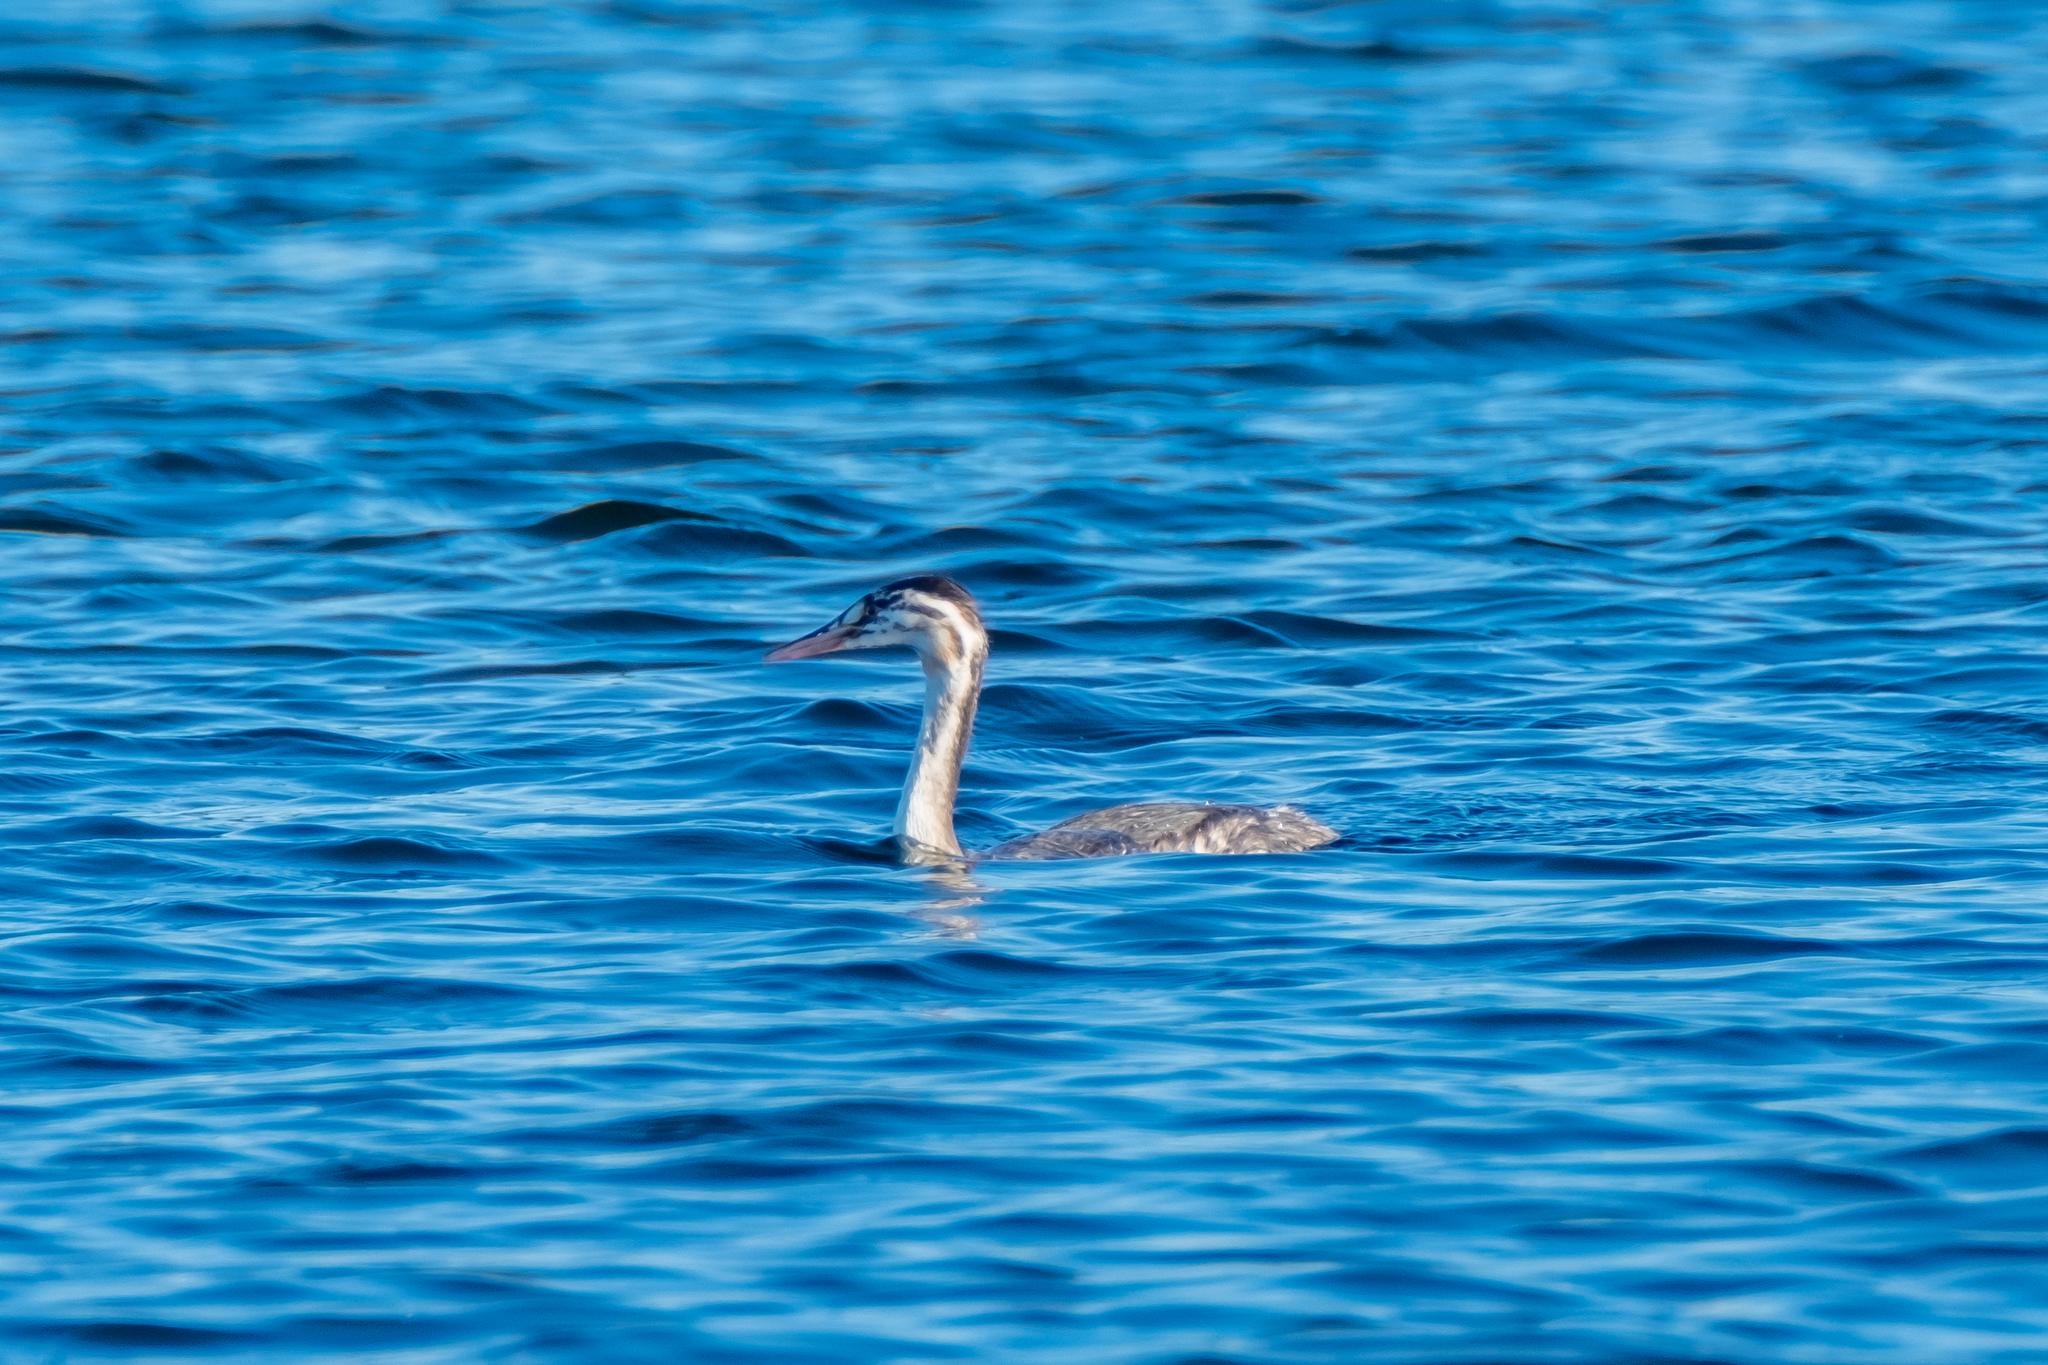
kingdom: Animalia
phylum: Chordata
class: Aves
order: Podicipediformes
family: Podicipedidae
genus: Podiceps
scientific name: Podiceps cristatus
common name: Great crested grebe
